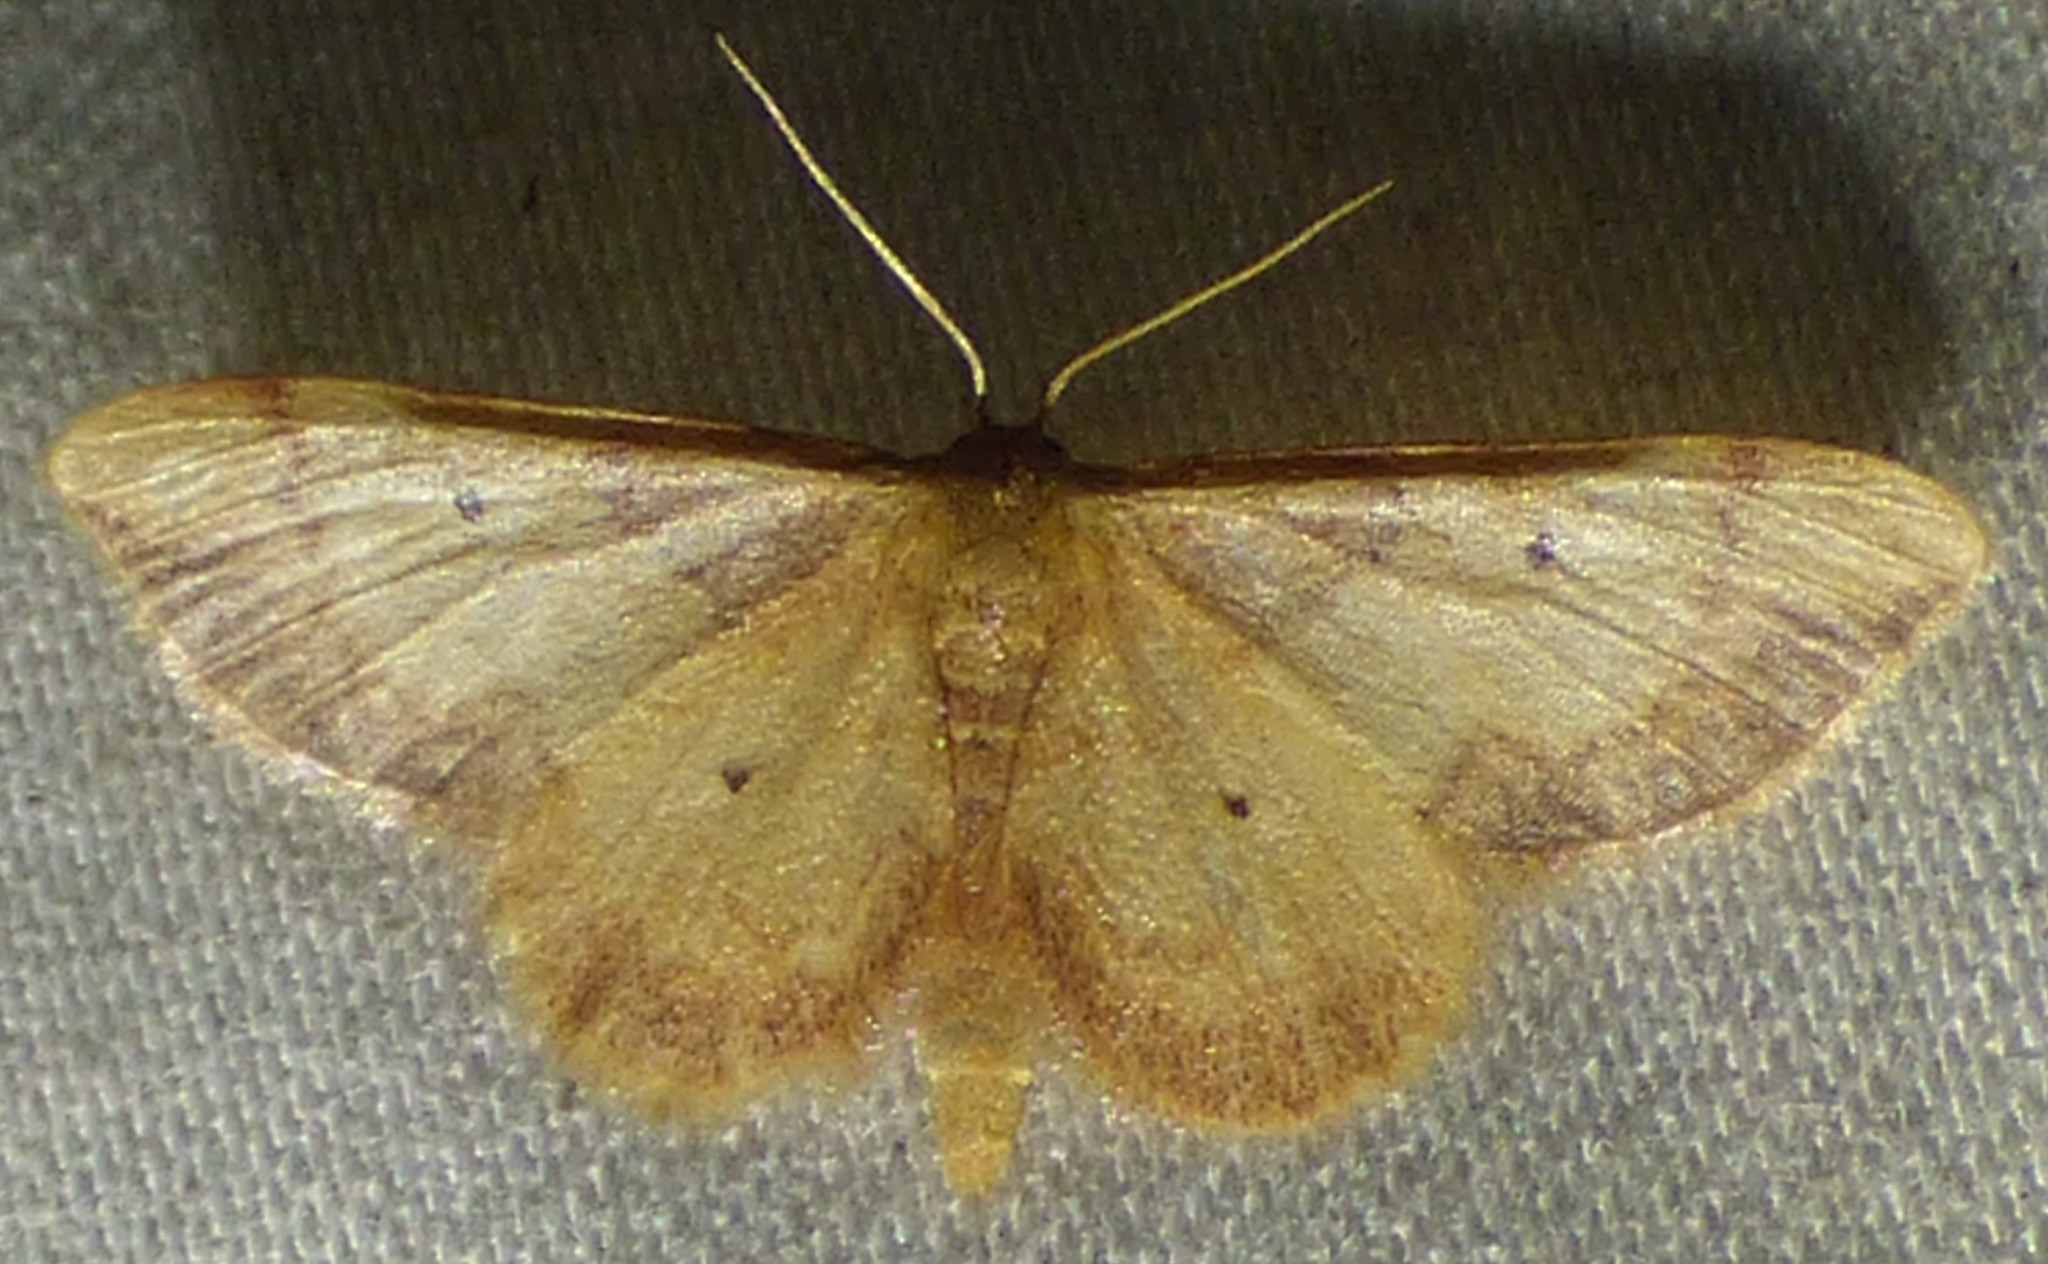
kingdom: Animalia
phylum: Arthropoda
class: Insecta
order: Lepidoptera
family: Geometridae
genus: Idaea
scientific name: Idaea demissaria
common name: Red-bordered wave
